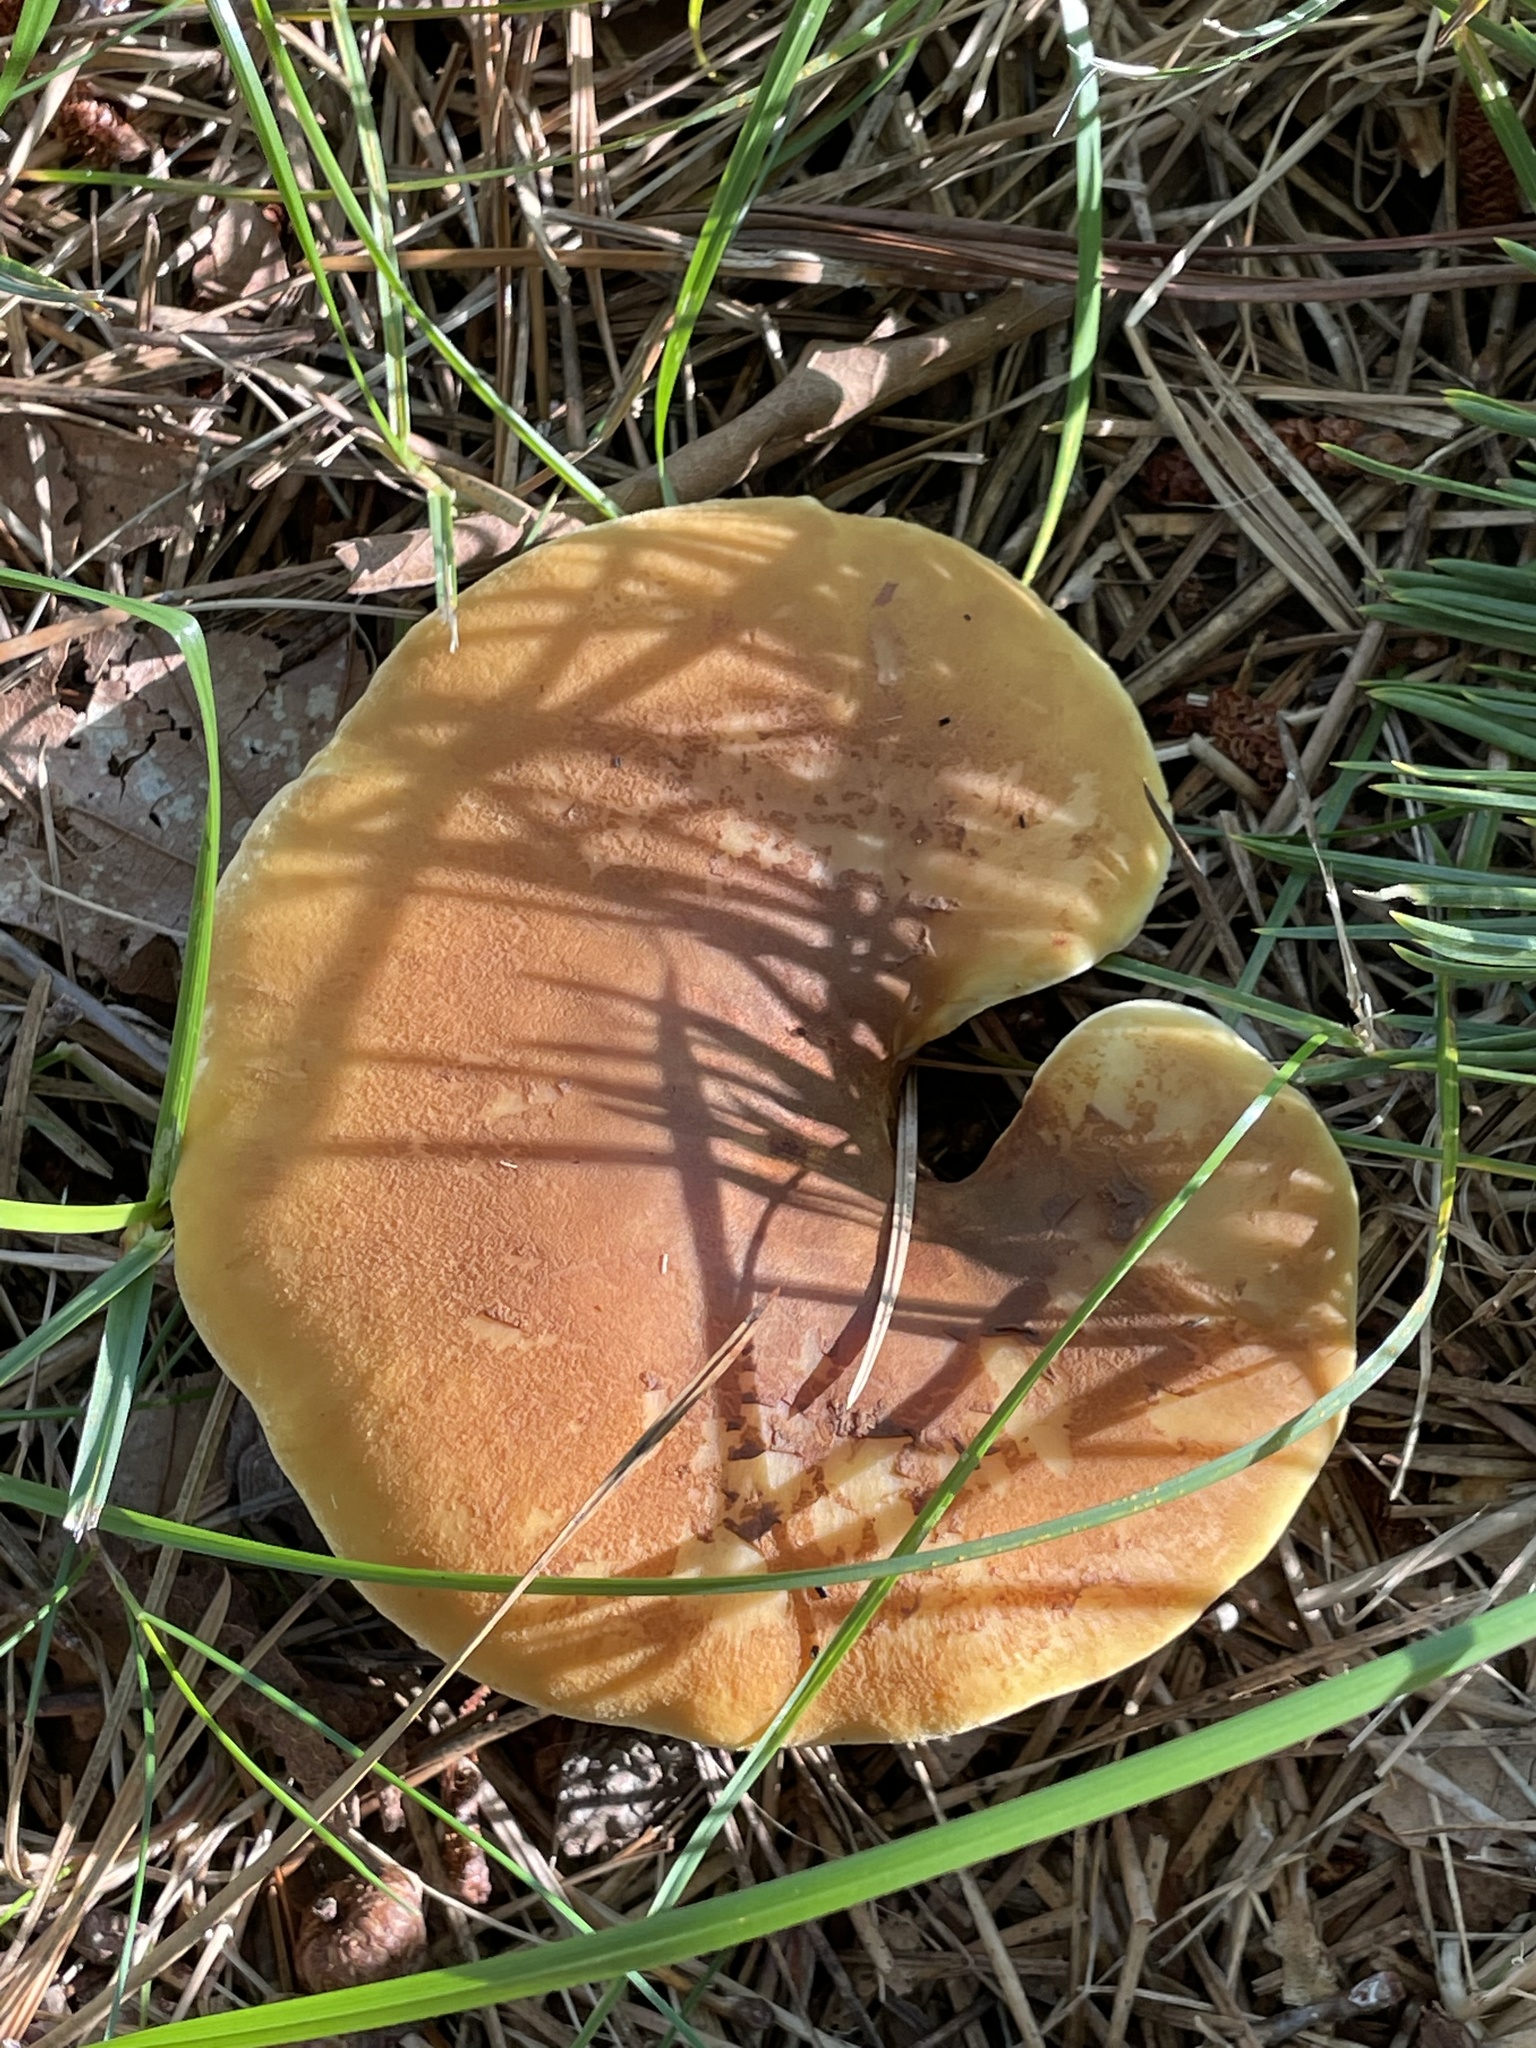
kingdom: Fungi
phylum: Basidiomycota
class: Agaricomycetes
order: Boletales
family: Tapinellaceae
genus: Tapinella
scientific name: Tapinella atrotomentosa
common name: Velvet rollrim
